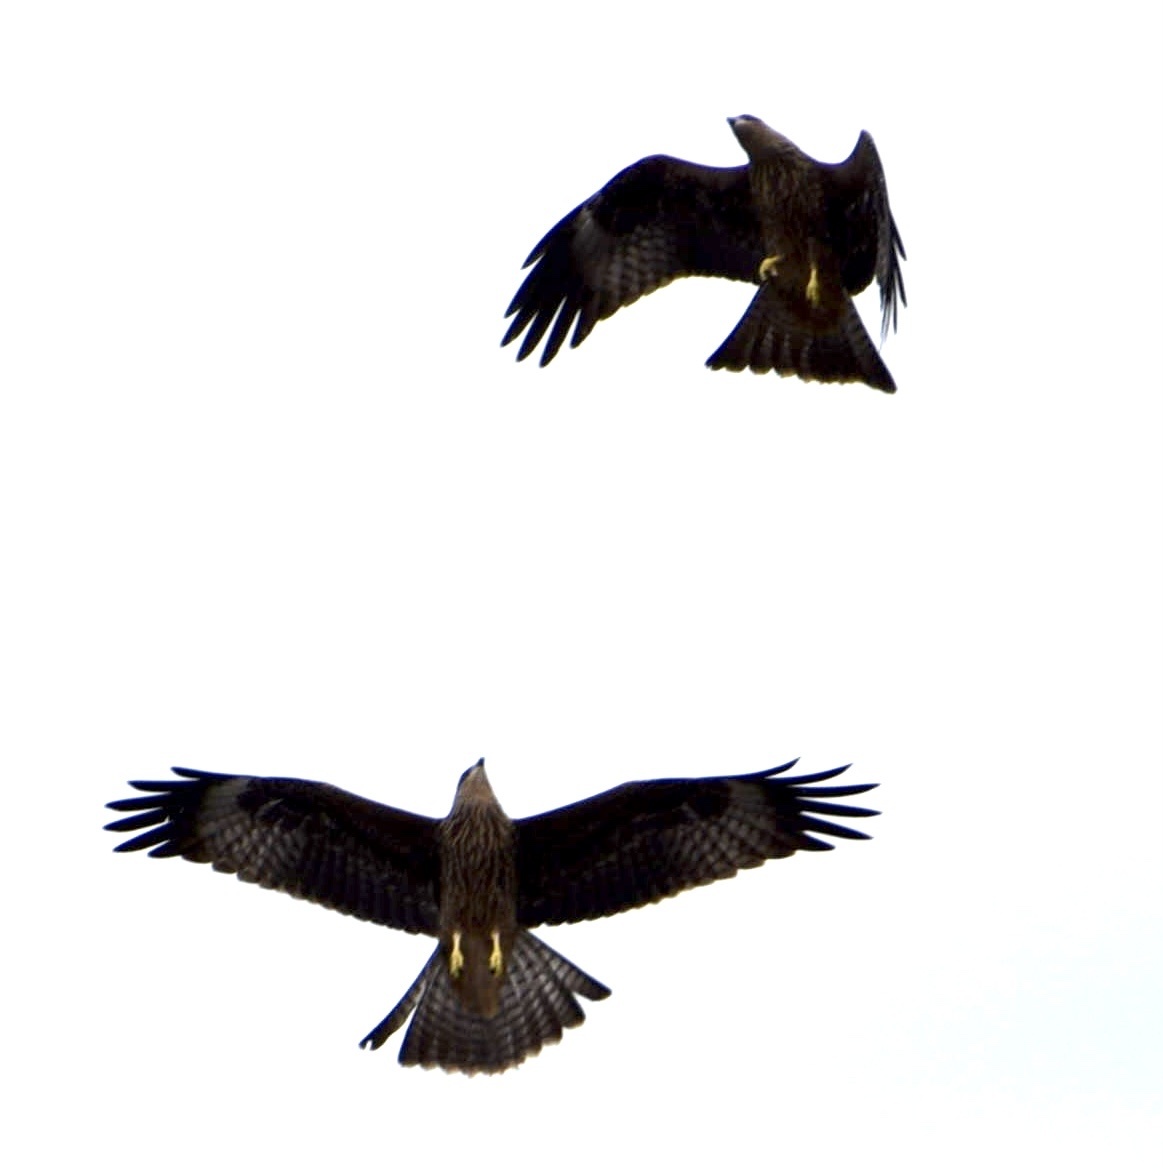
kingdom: Animalia
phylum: Chordata
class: Aves
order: Accipitriformes
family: Accipitridae
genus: Milvus
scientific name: Milvus migrans
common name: Black kite
